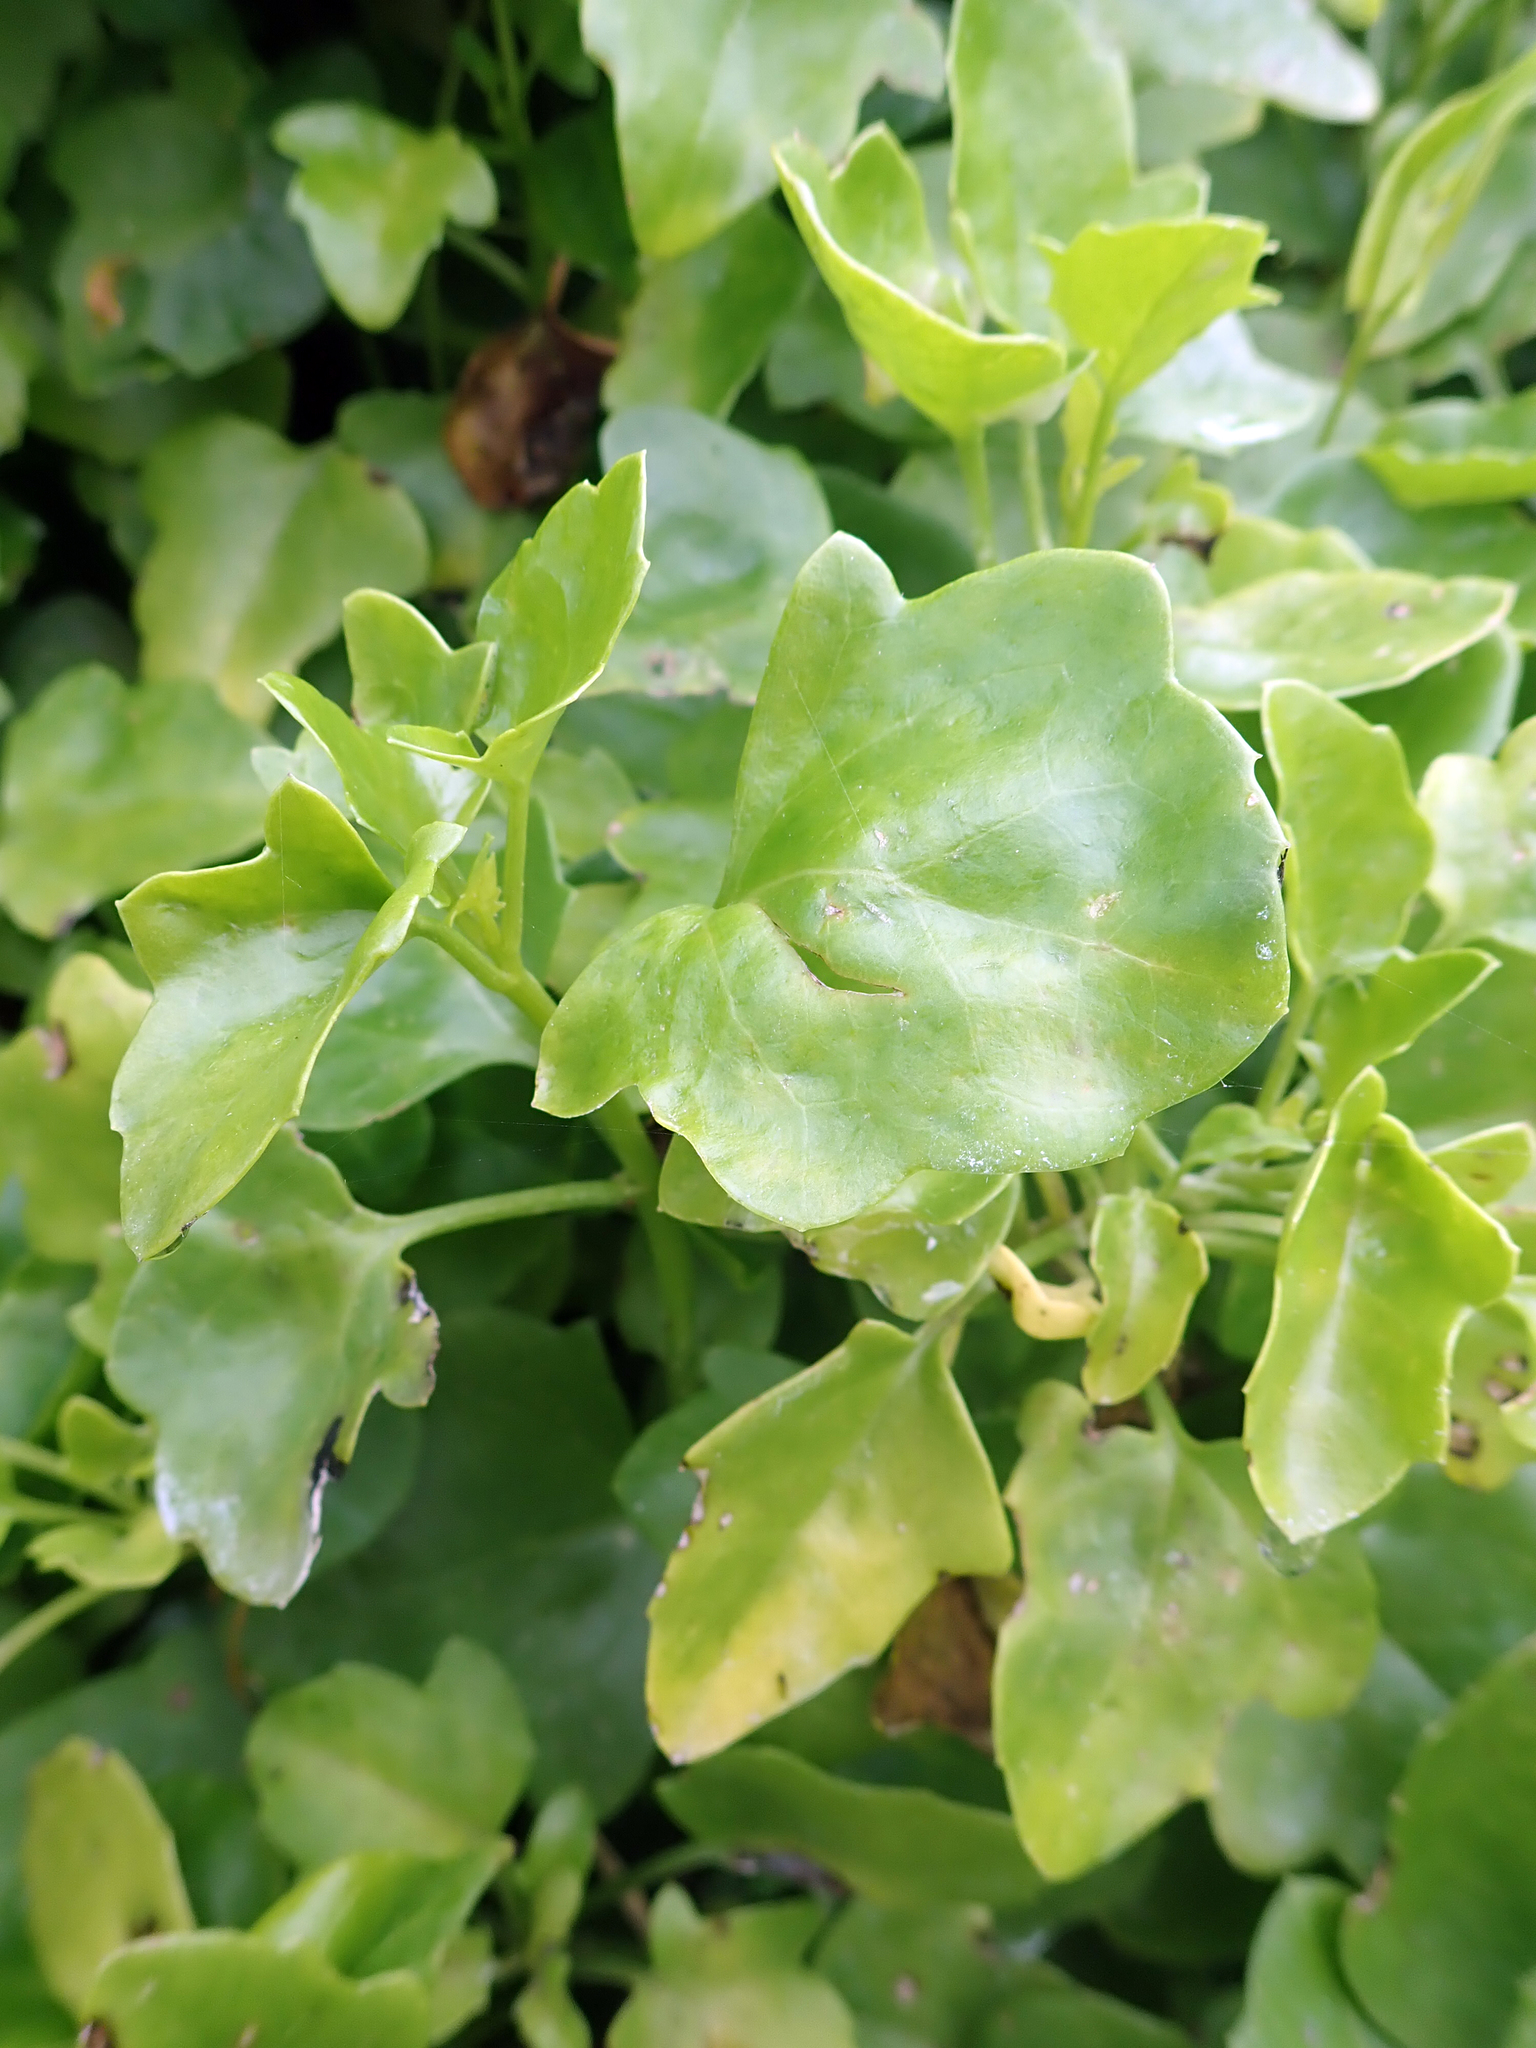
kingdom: Plantae
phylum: Tracheophyta
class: Magnoliopsida
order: Asterales
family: Asteraceae
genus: Senecio
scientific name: Senecio angulatus
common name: Climbing groundsel
